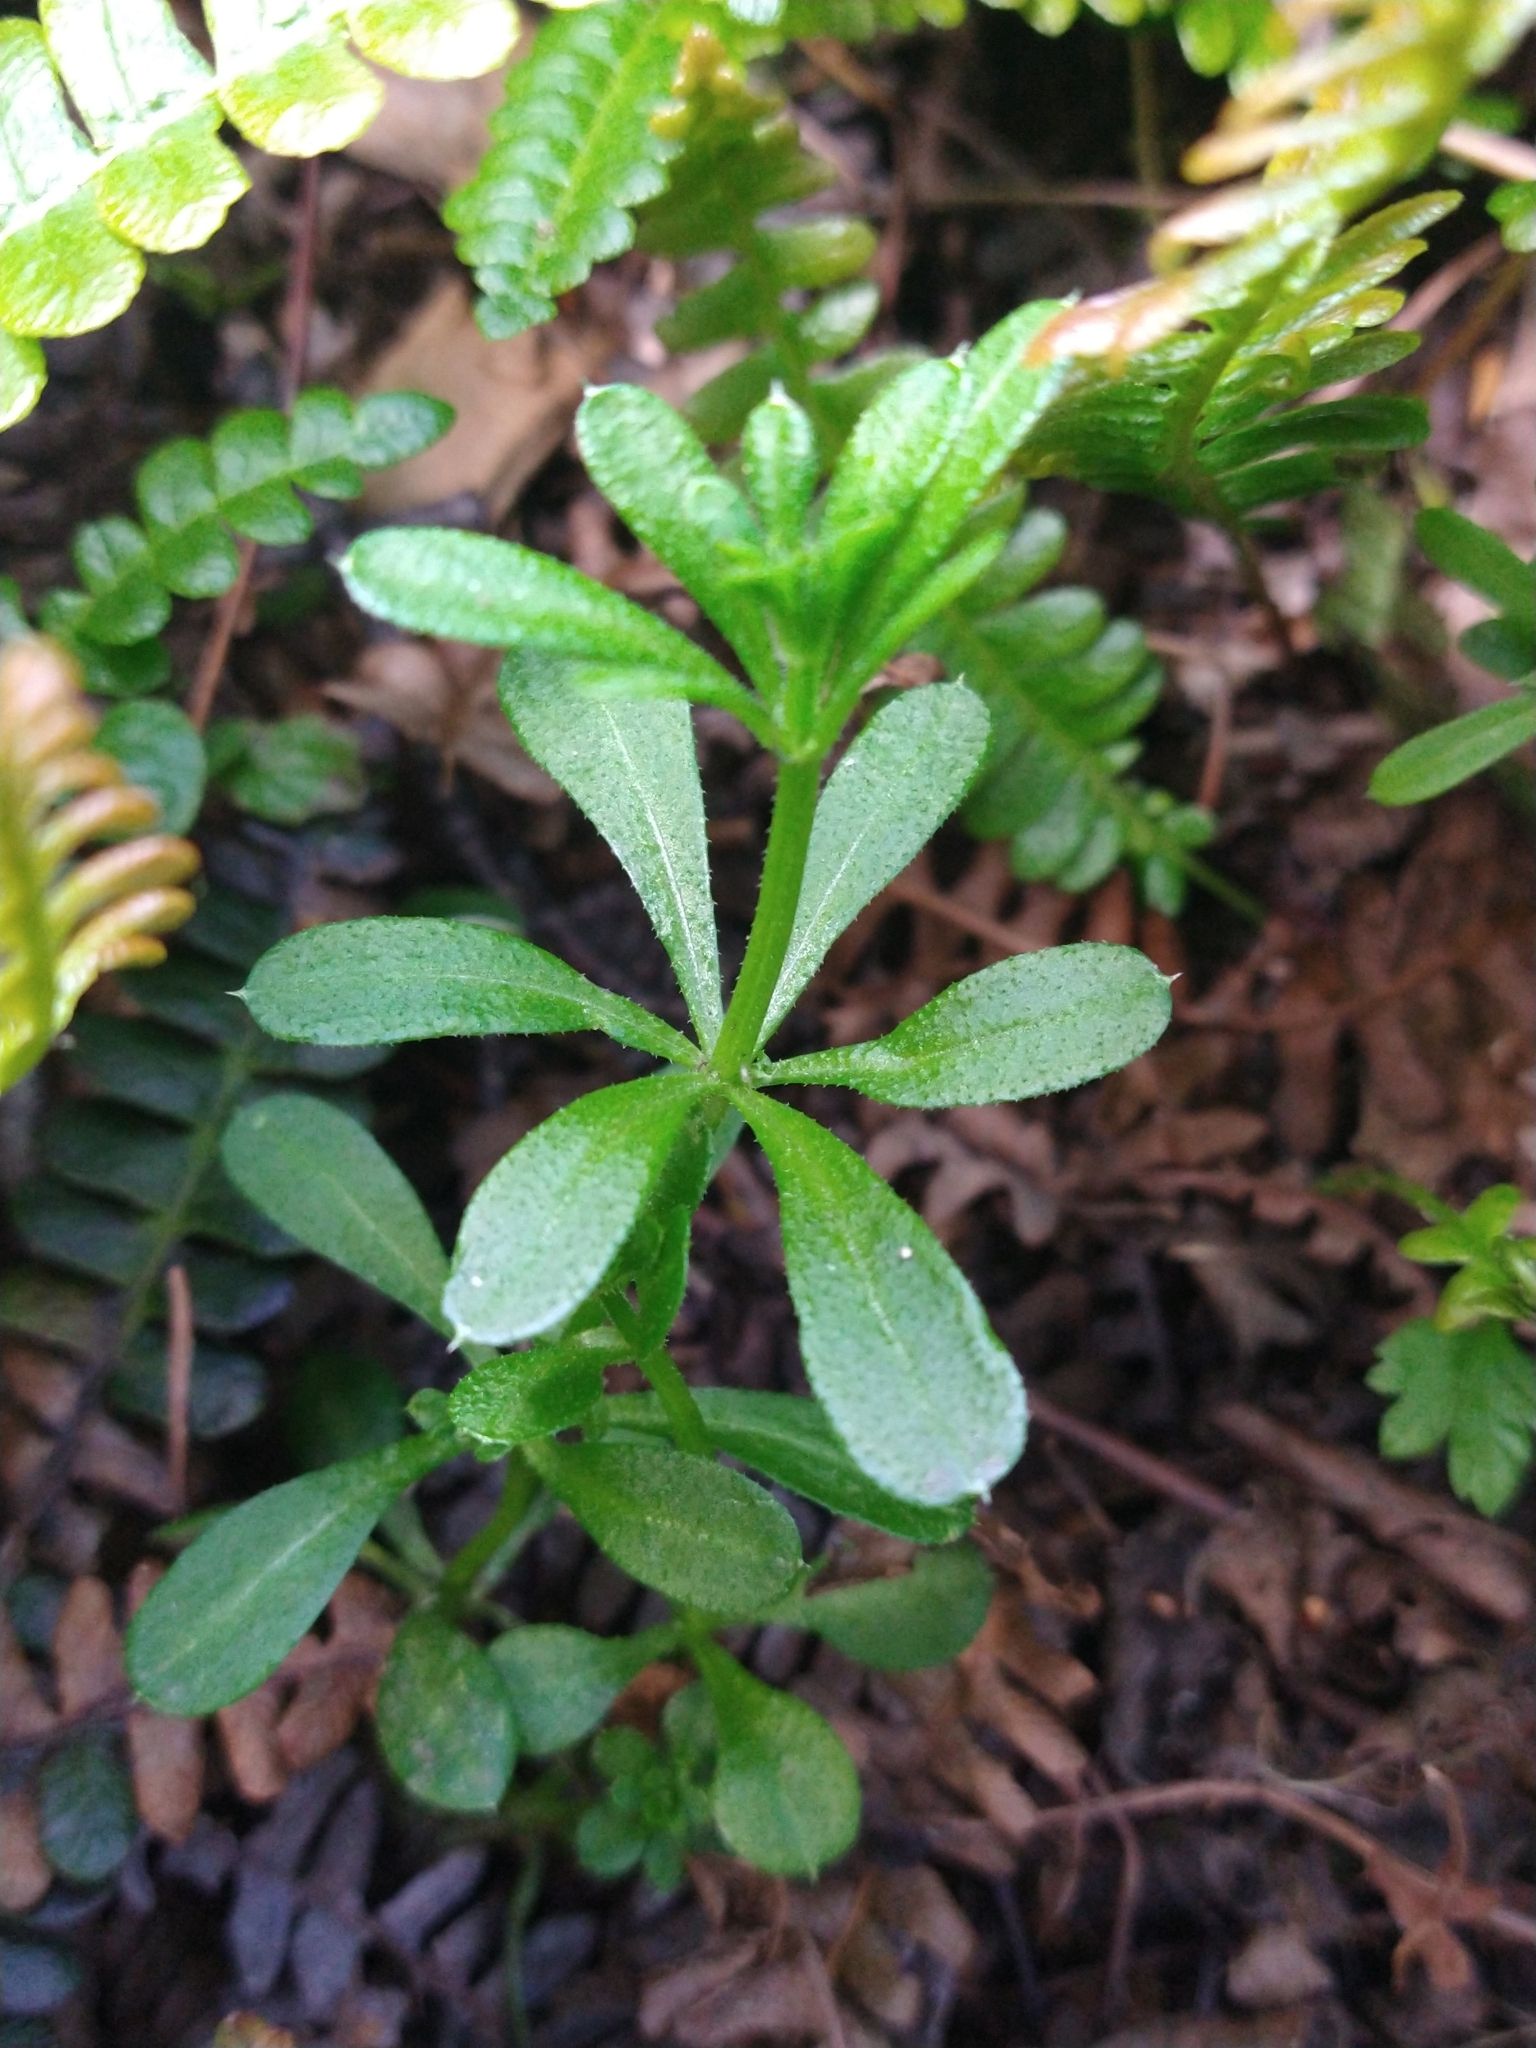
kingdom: Plantae
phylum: Tracheophyta
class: Magnoliopsida
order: Gentianales
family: Rubiaceae
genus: Galium
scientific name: Galium aparine
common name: Cleavers
